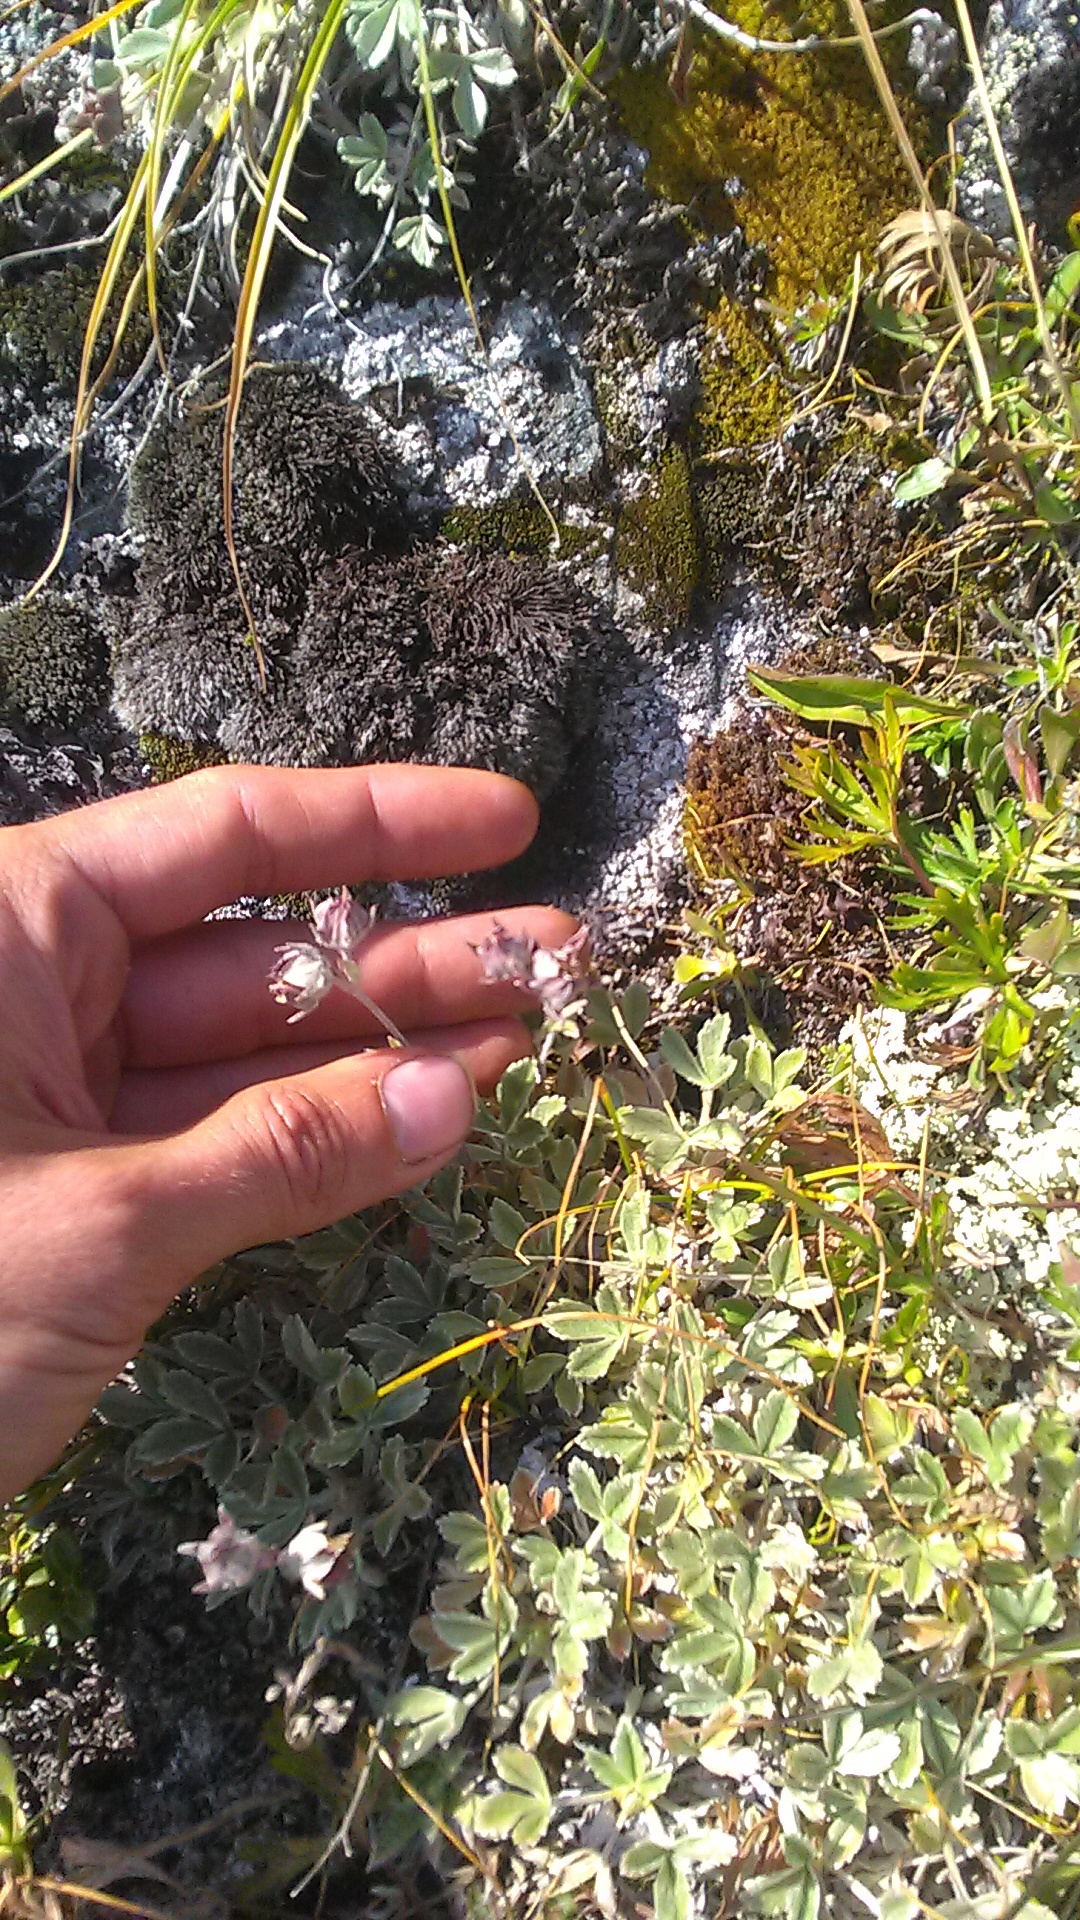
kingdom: Plantae
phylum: Tracheophyta
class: Magnoliopsida
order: Rosales
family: Rosaceae
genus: Potentilla
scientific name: Potentilla divina
